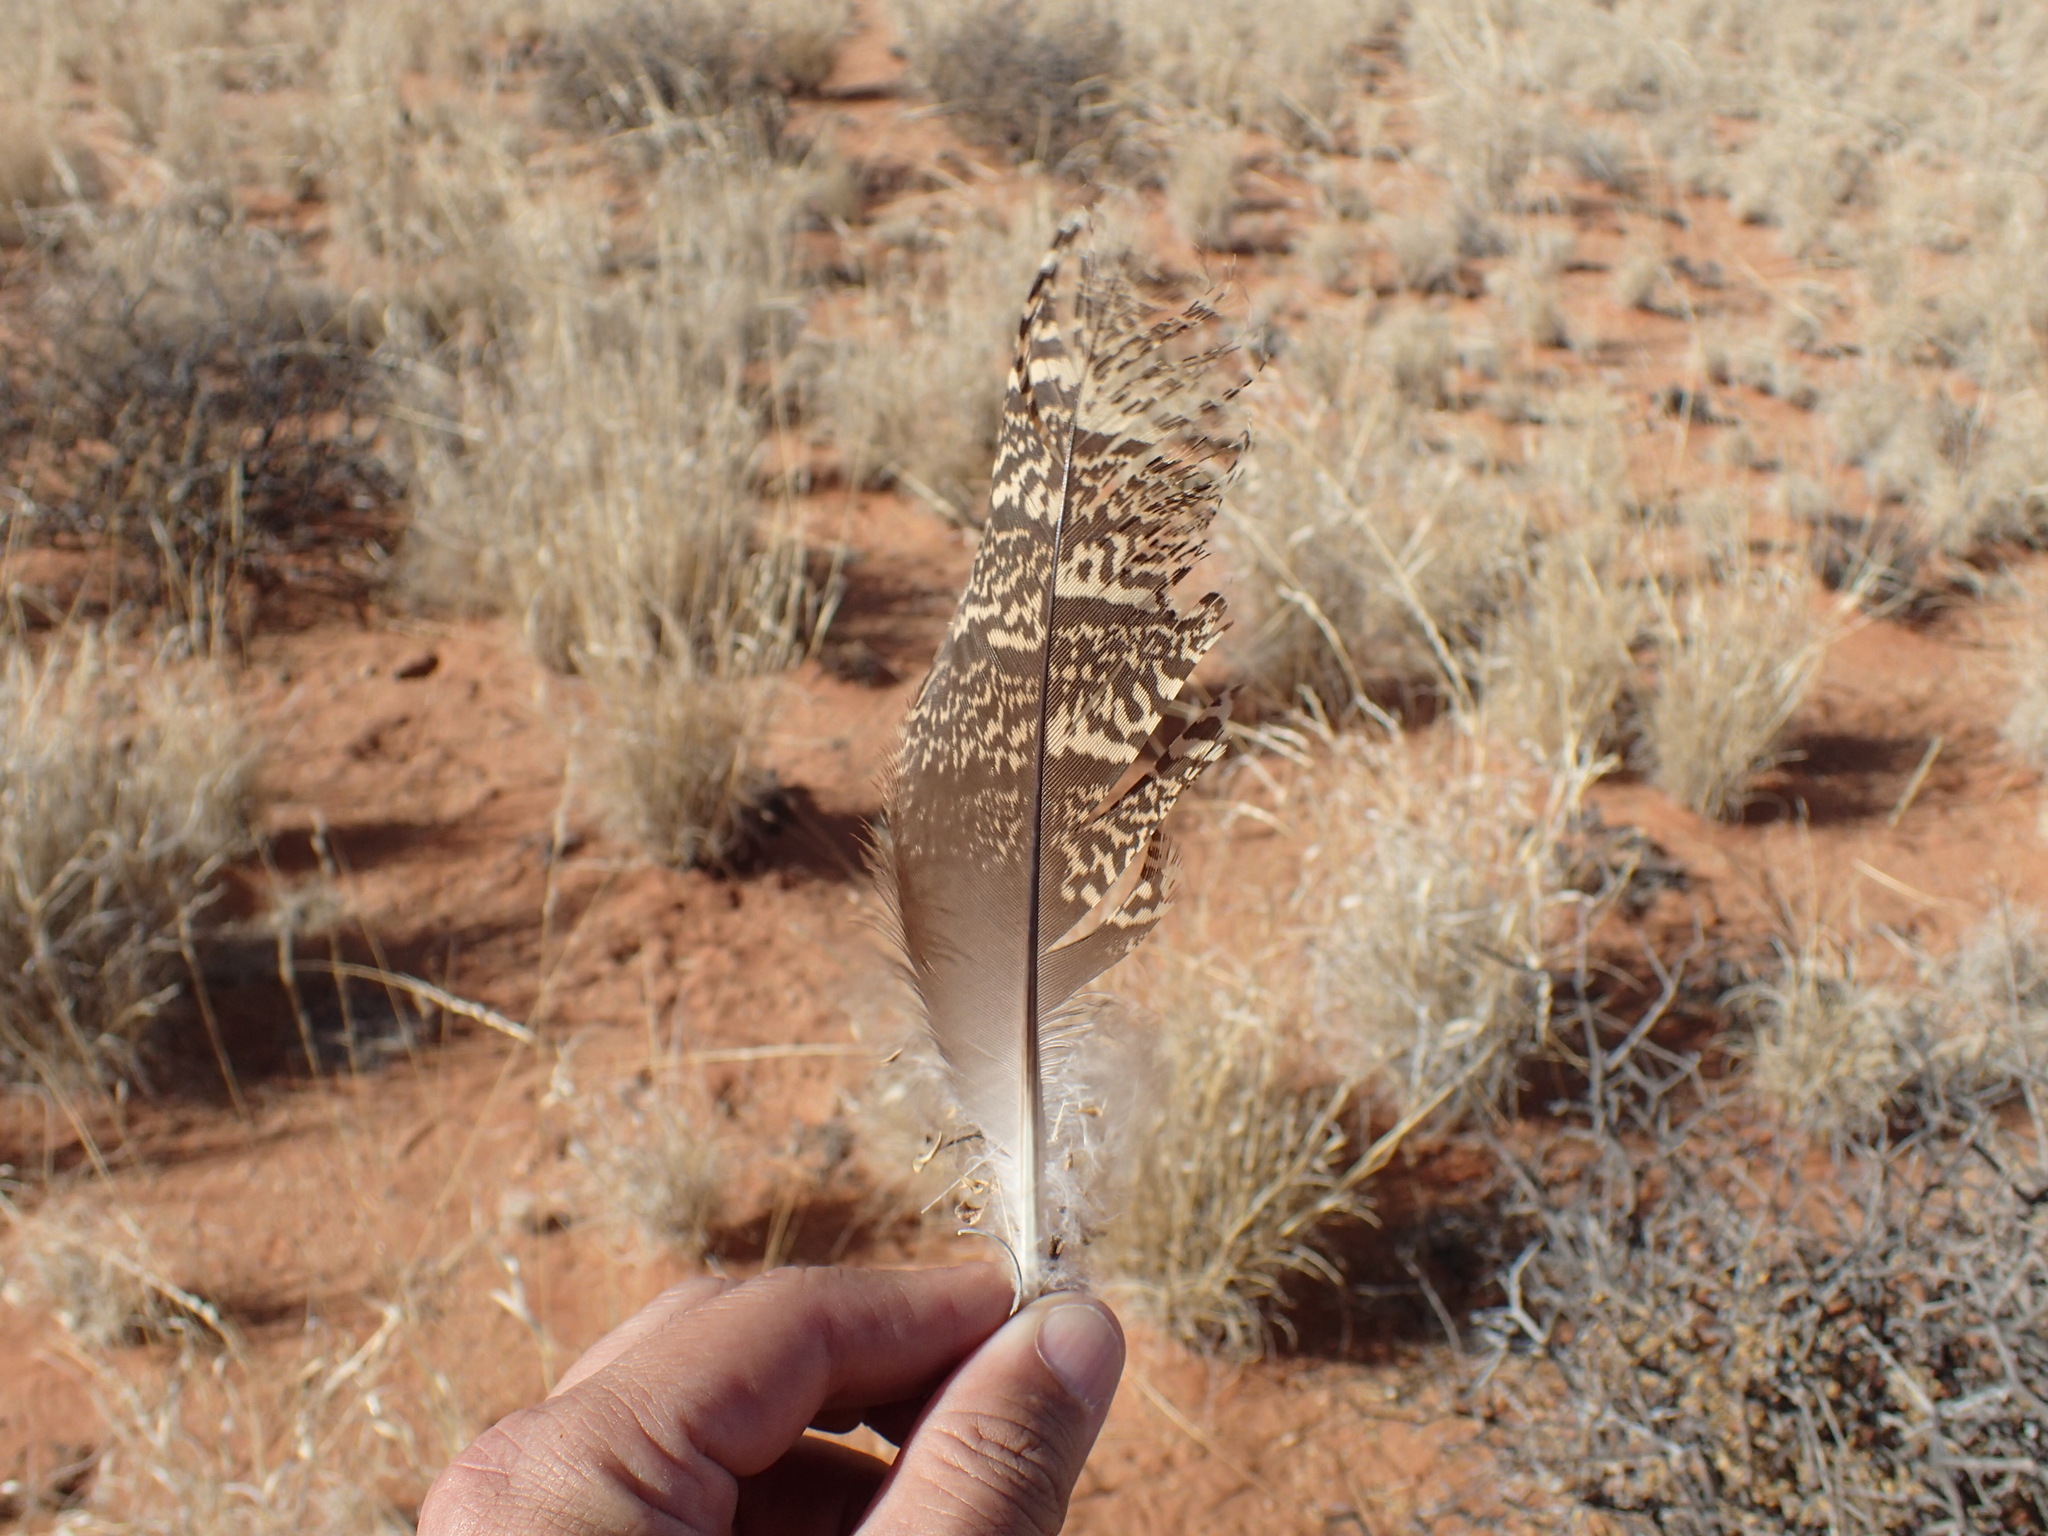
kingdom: Animalia
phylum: Chordata
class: Aves
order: Otidiformes
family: Otididae
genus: Afrotis
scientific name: Afrotis afraoides
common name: Northern black korhaan
